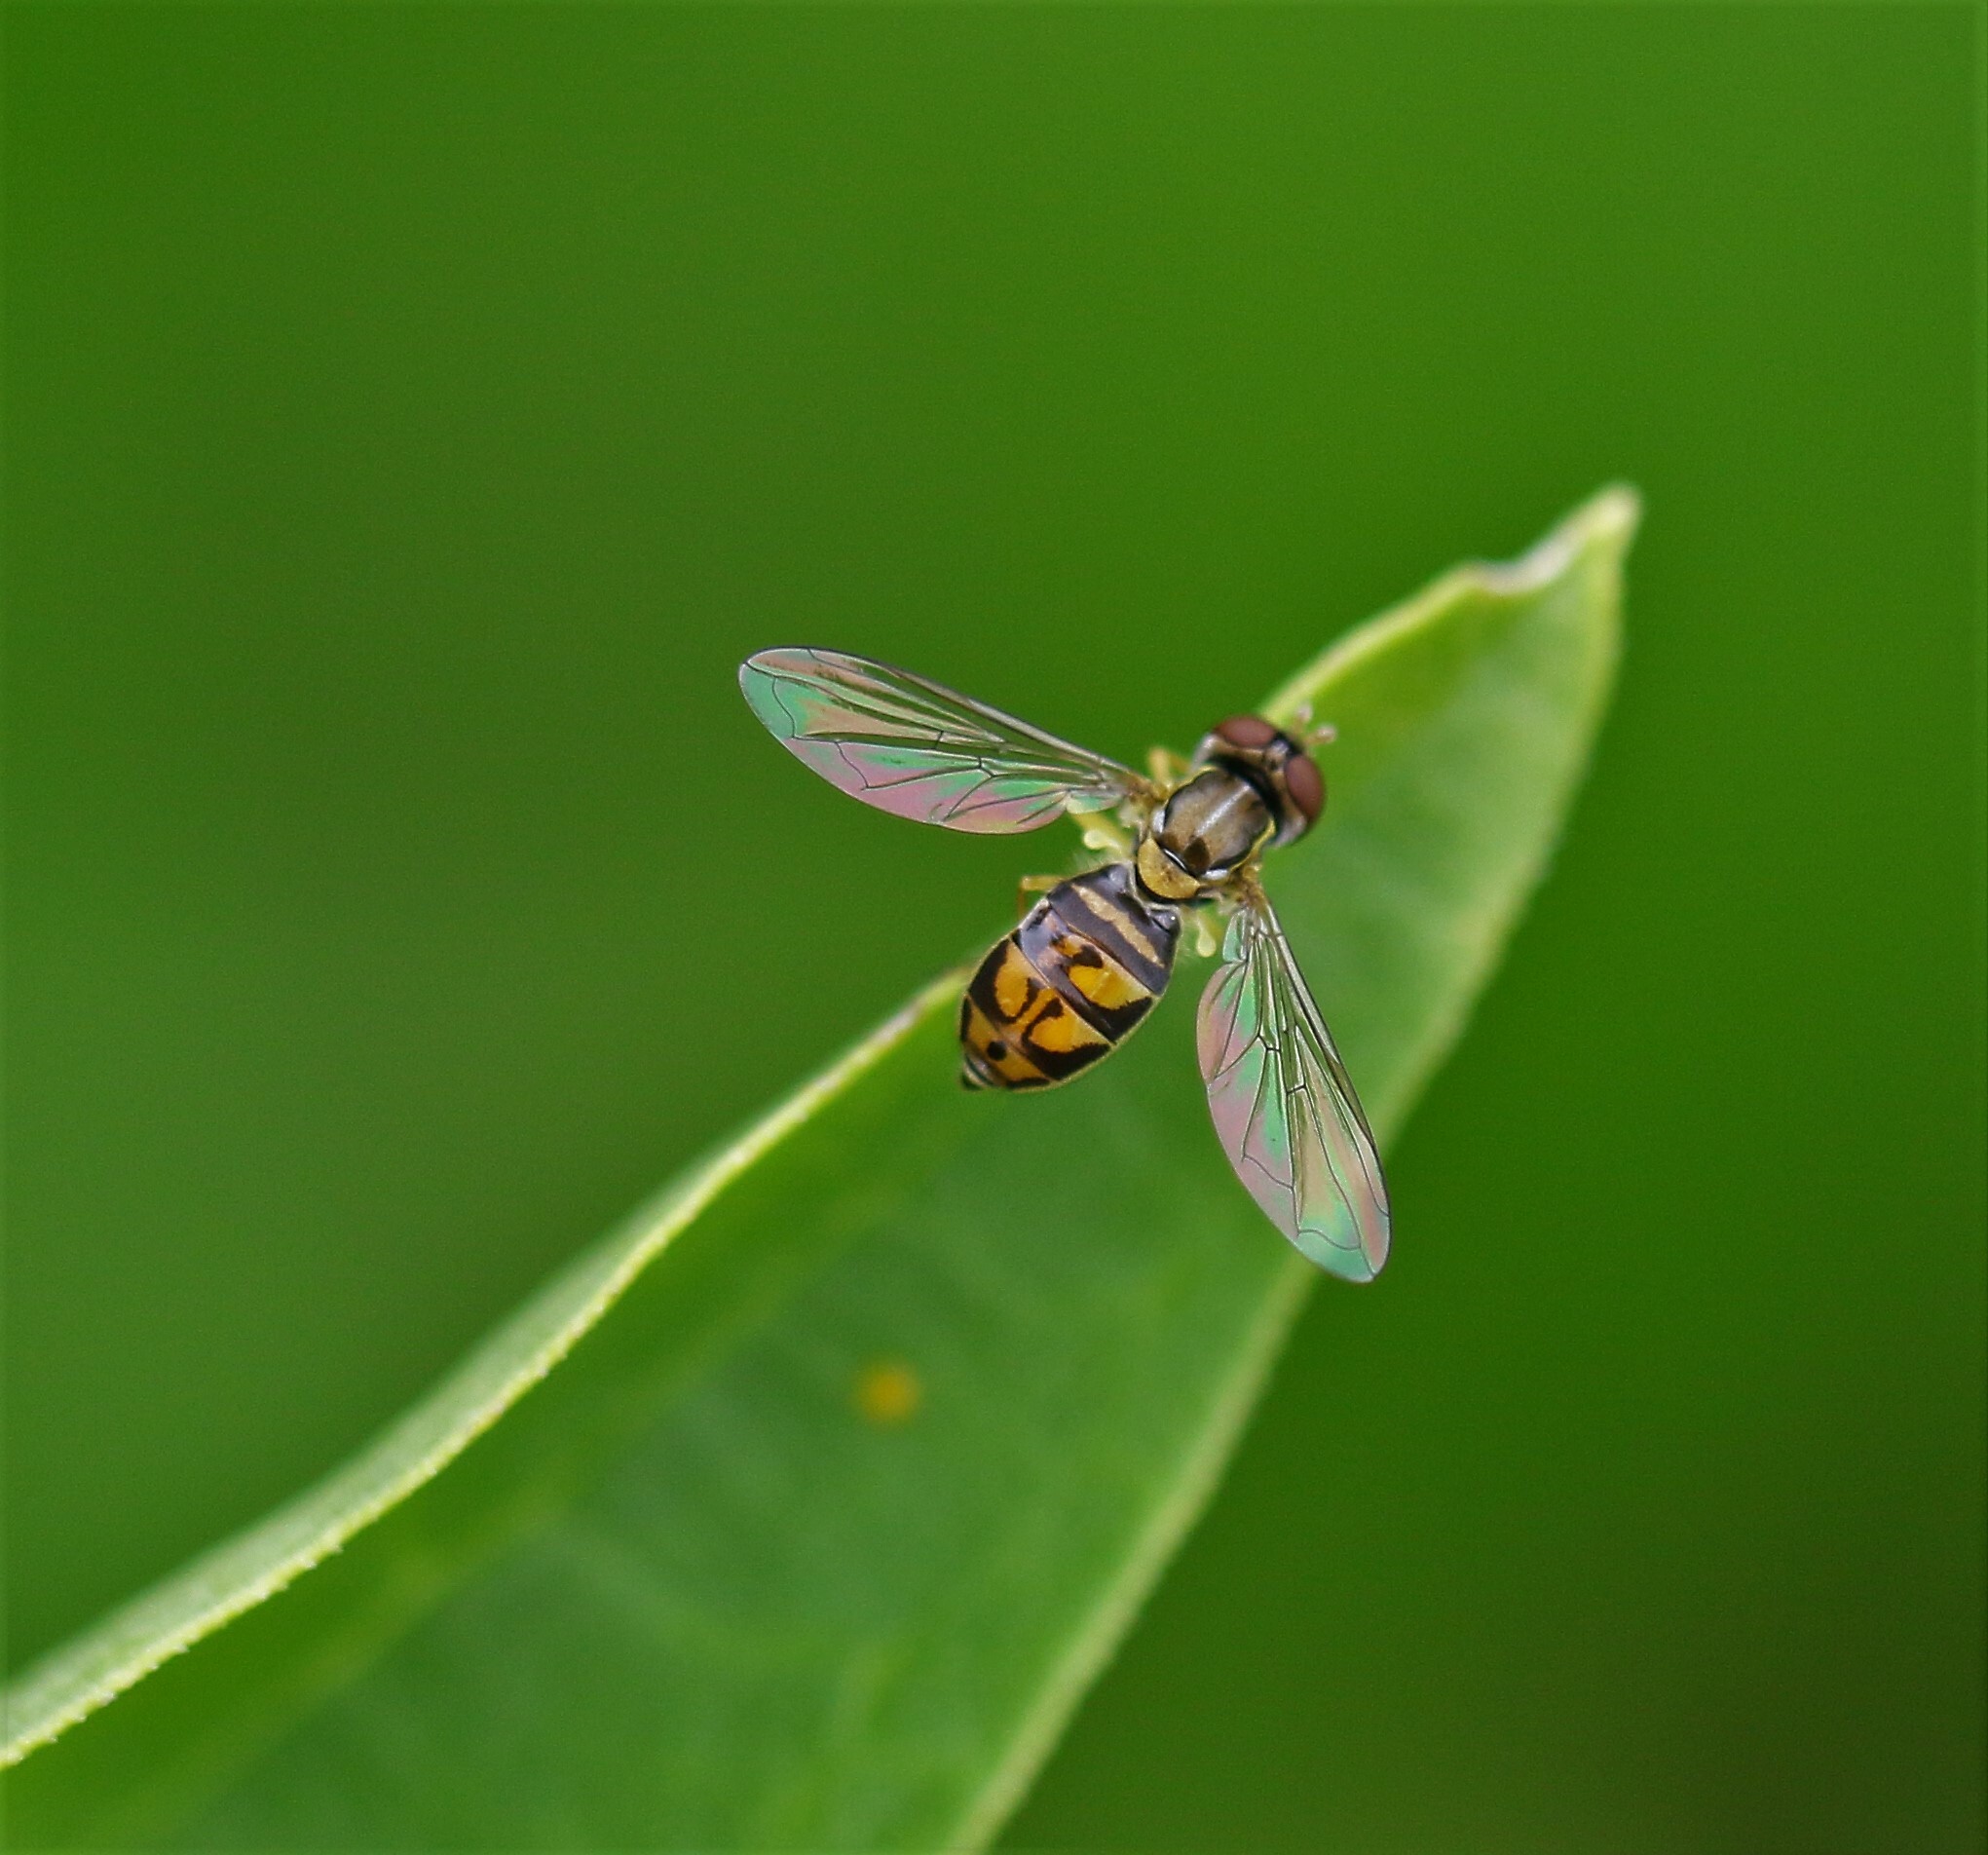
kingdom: Animalia
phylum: Arthropoda
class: Insecta
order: Diptera
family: Syrphidae
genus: Toxomerus
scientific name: Toxomerus marginatus
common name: Syrphid fly
